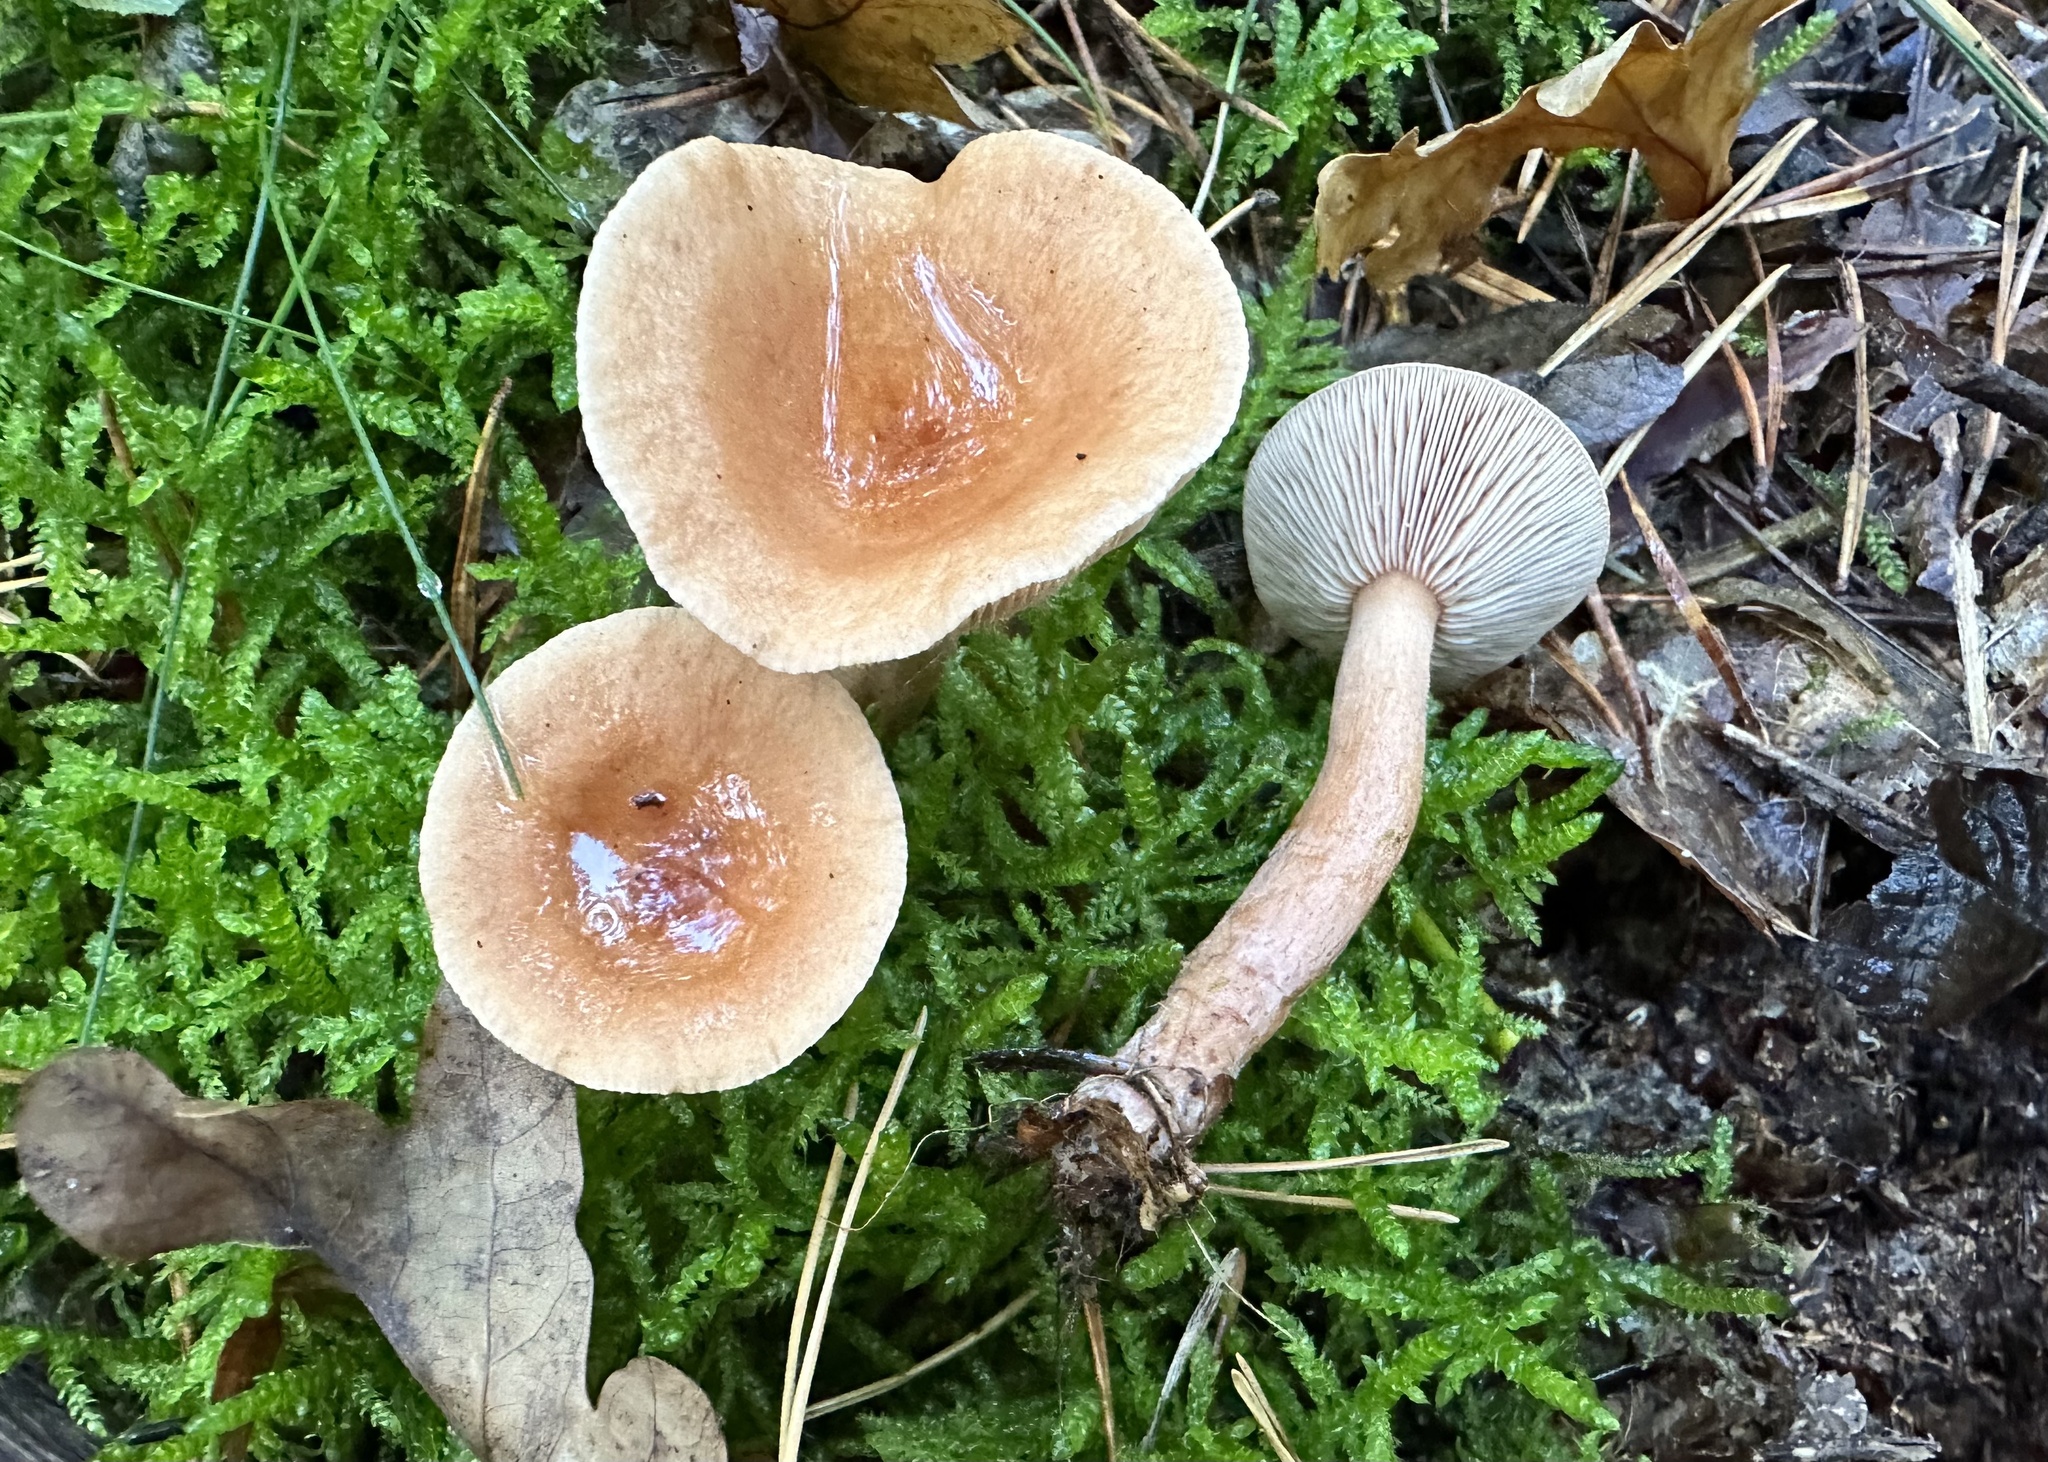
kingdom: Fungi
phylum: Basidiomycota
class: Agaricomycetes
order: Russulales
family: Russulaceae
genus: Lactarius
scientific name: Lactarius tabidus
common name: Birch milkcap
